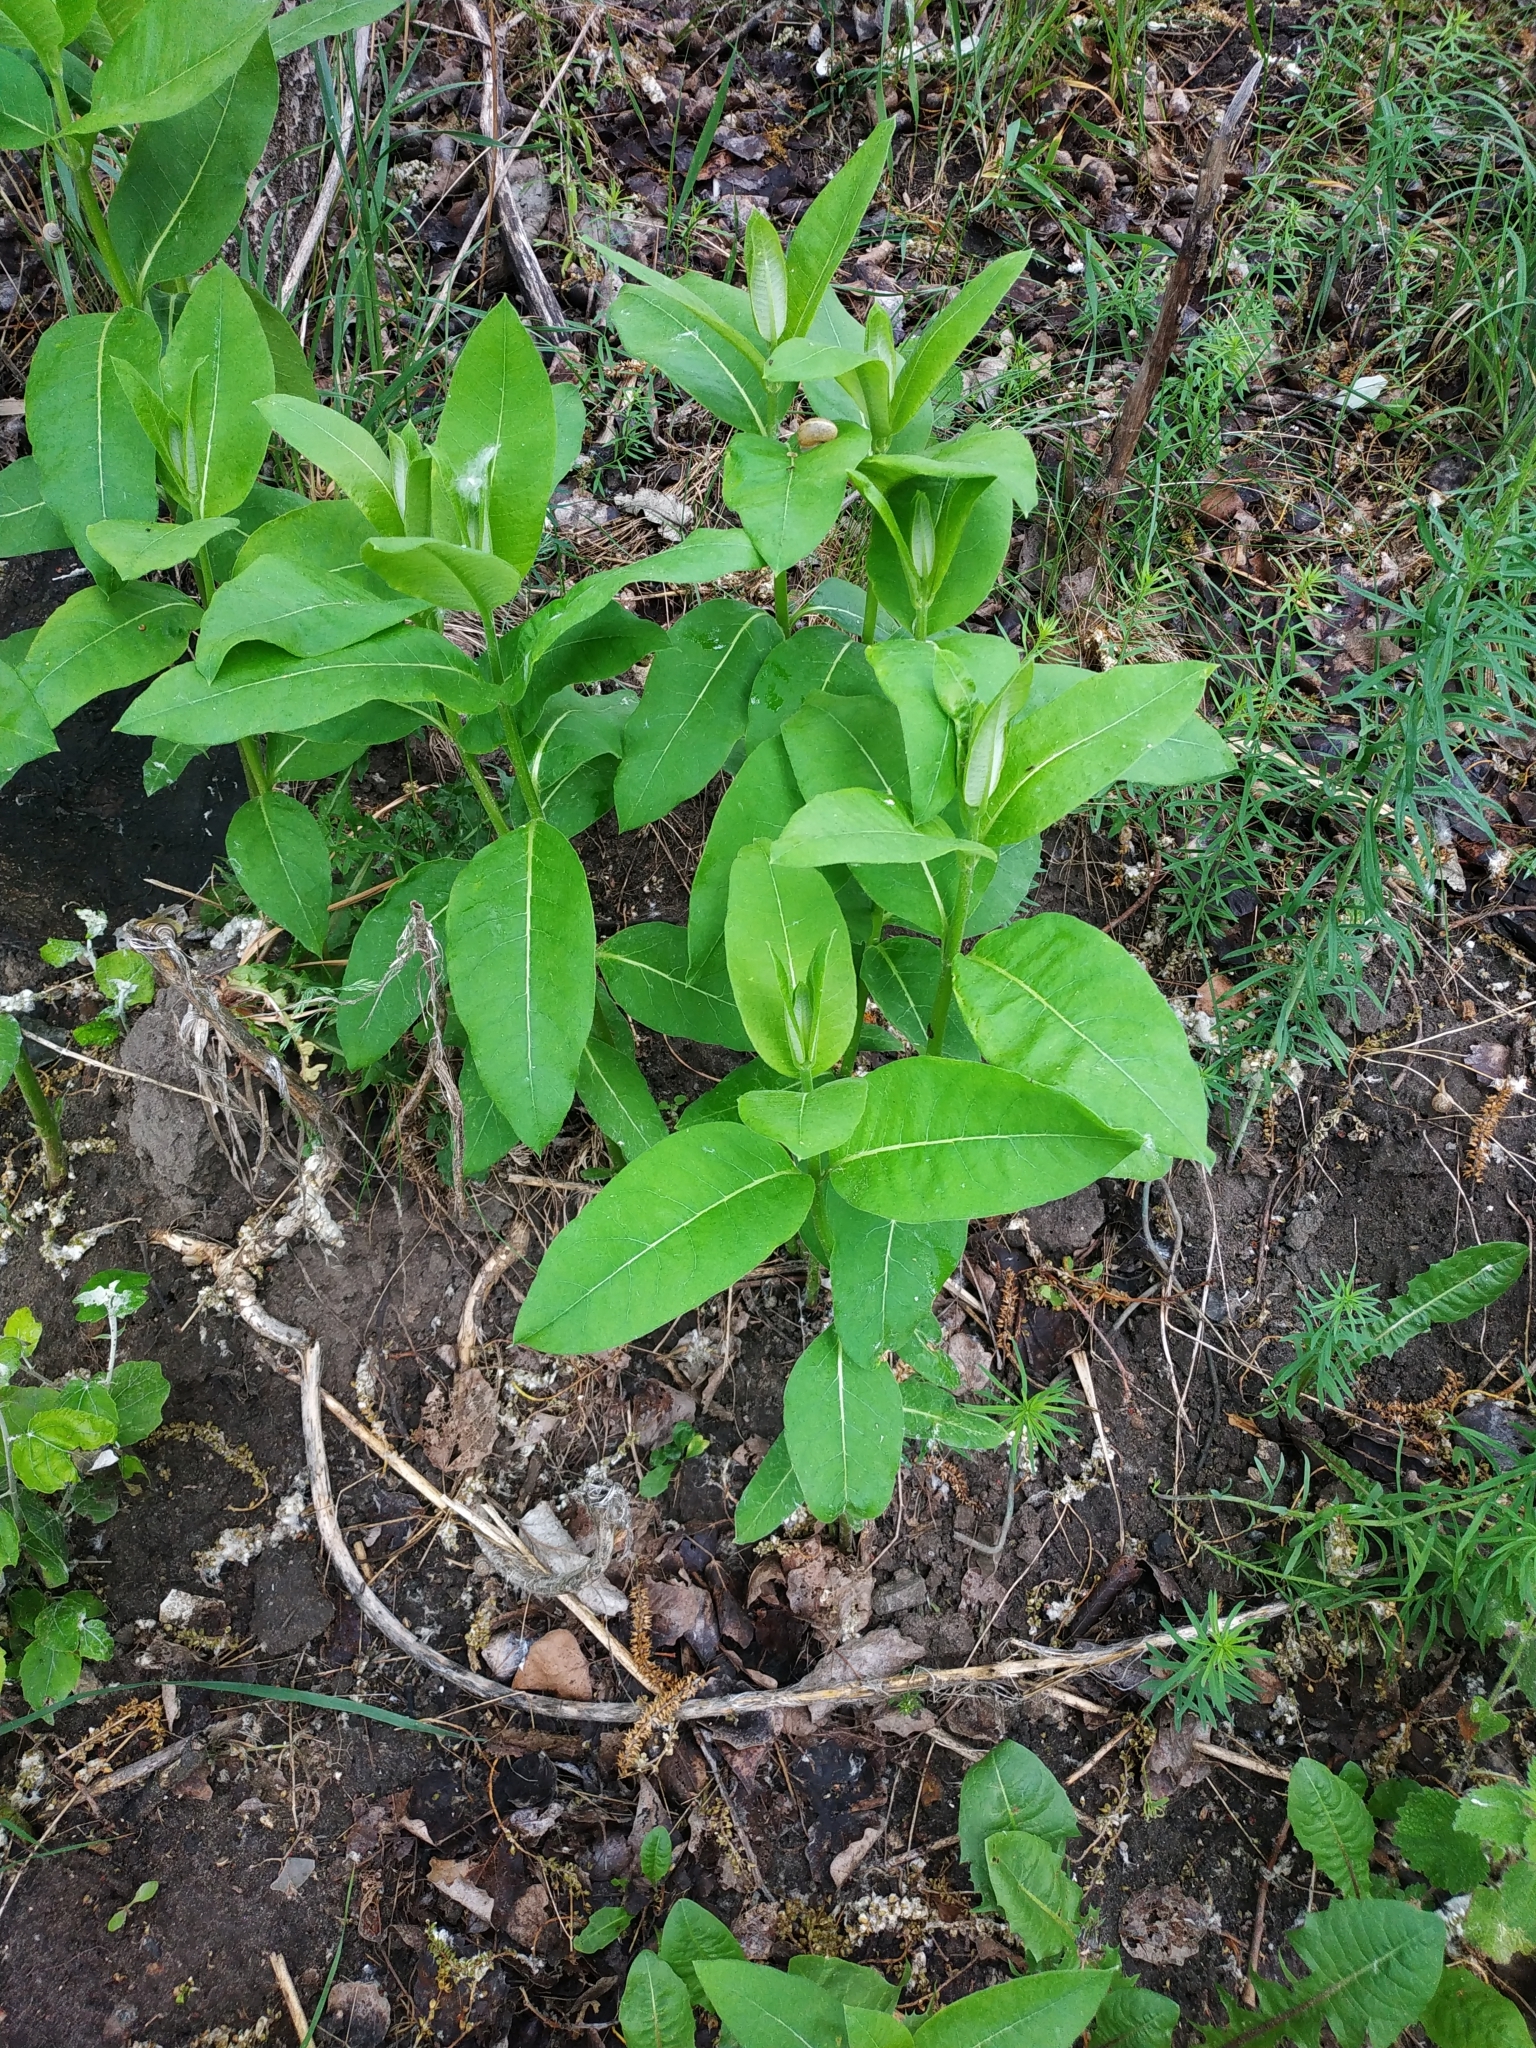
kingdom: Plantae
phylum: Tracheophyta
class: Magnoliopsida
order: Gentianales
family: Apocynaceae
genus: Asclepias
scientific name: Asclepias syriaca
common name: Common milkweed
